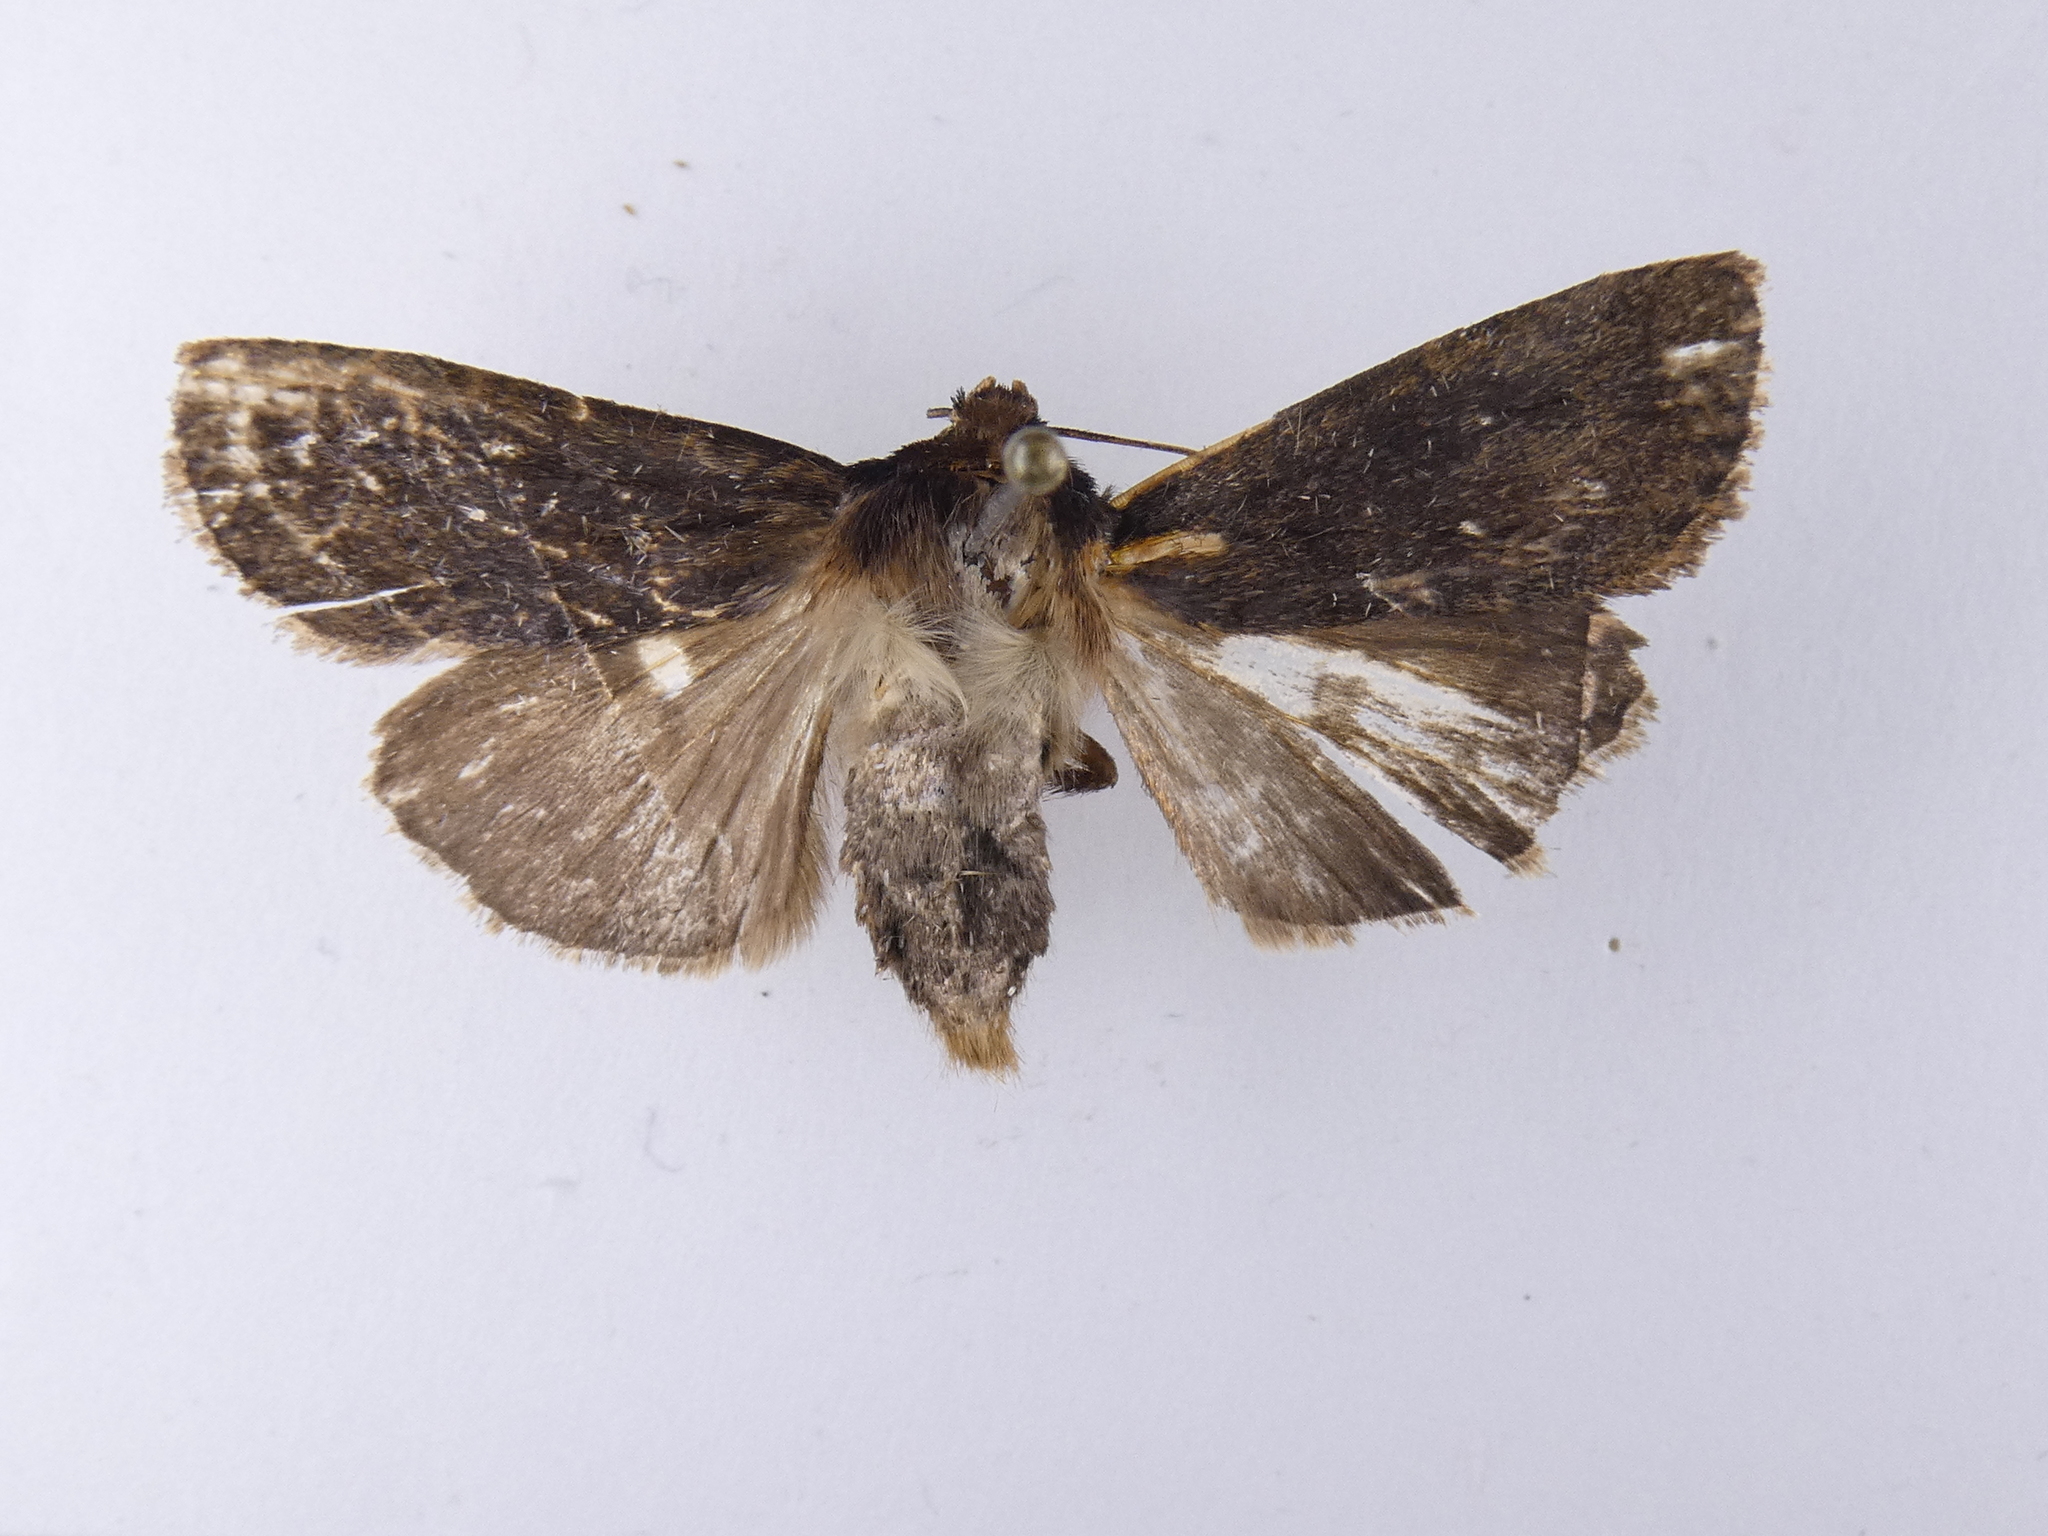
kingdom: Animalia
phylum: Arthropoda
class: Insecta
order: Lepidoptera
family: Noctuidae
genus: Bityla
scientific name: Bityla defigurata
